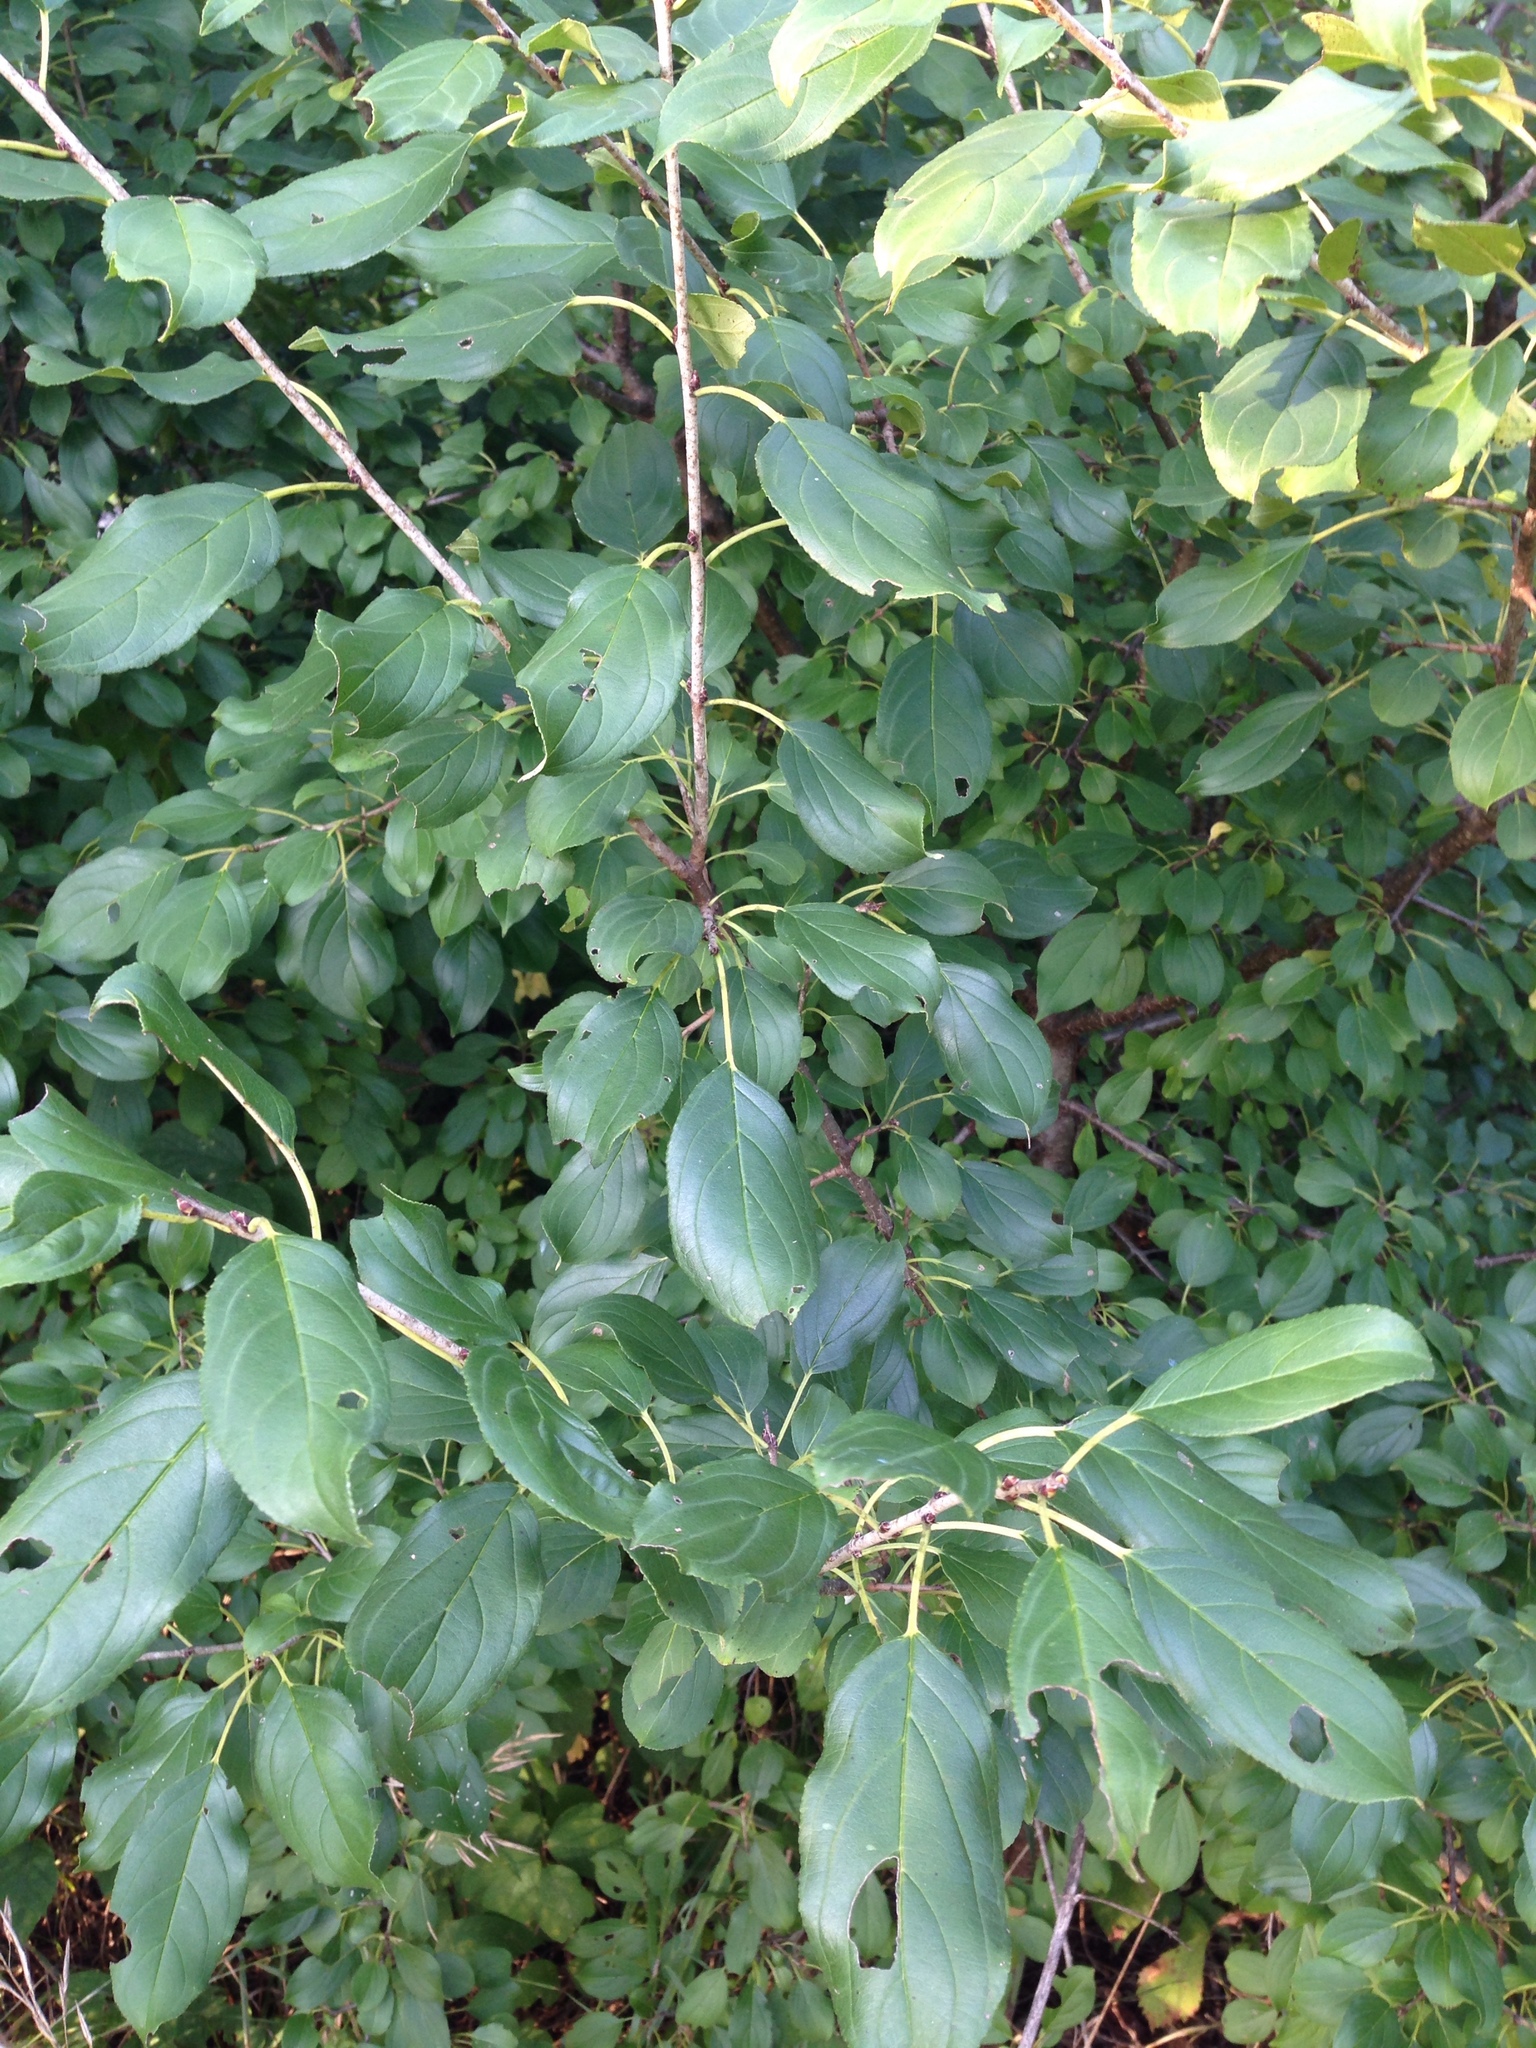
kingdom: Plantae
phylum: Tracheophyta
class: Magnoliopsida
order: Rosales
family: Rhamnaceae
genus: Rhamnus
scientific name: Rhamnus cathartica
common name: Common buckthorn
